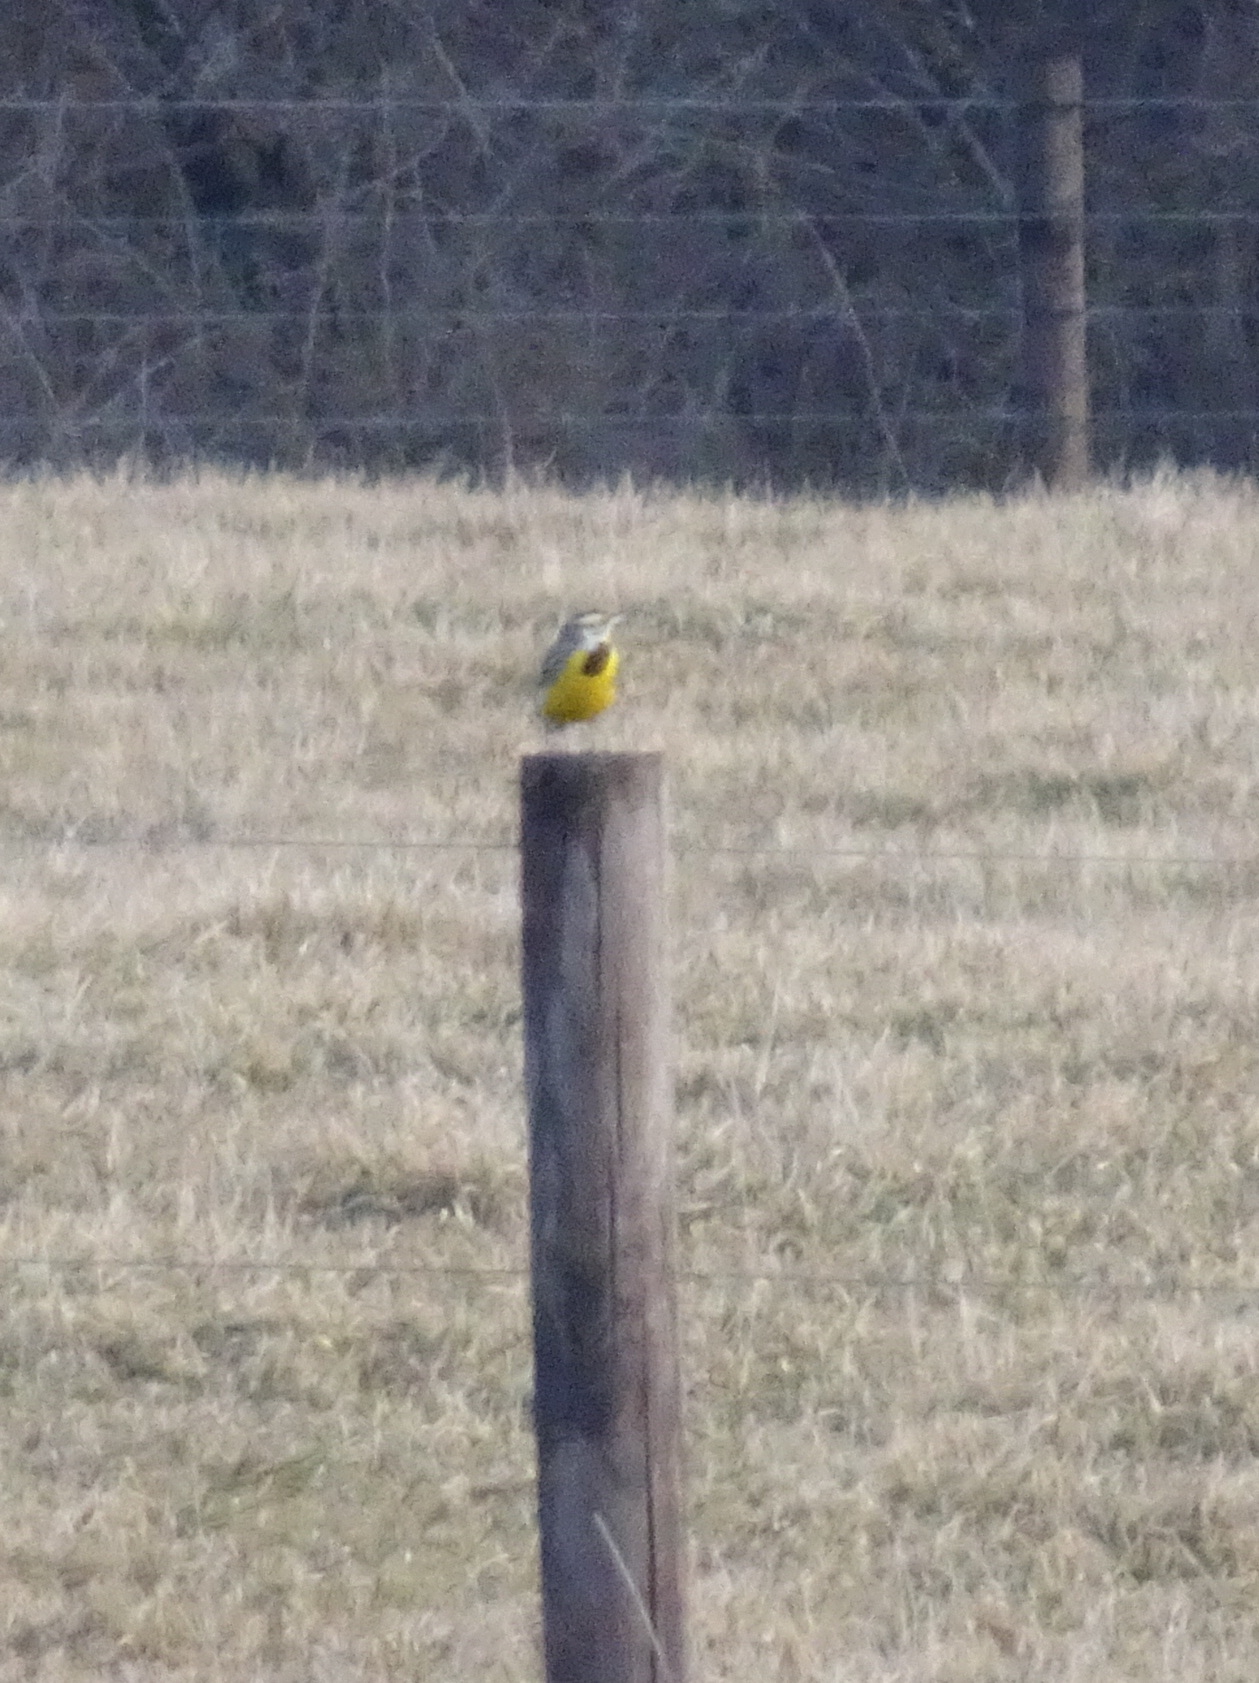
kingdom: Animalia
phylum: Chordata
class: Aves
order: Passeriformes
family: Icteridae
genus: Sturnella
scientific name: Sturnella magna
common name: Eastern meadowlark
